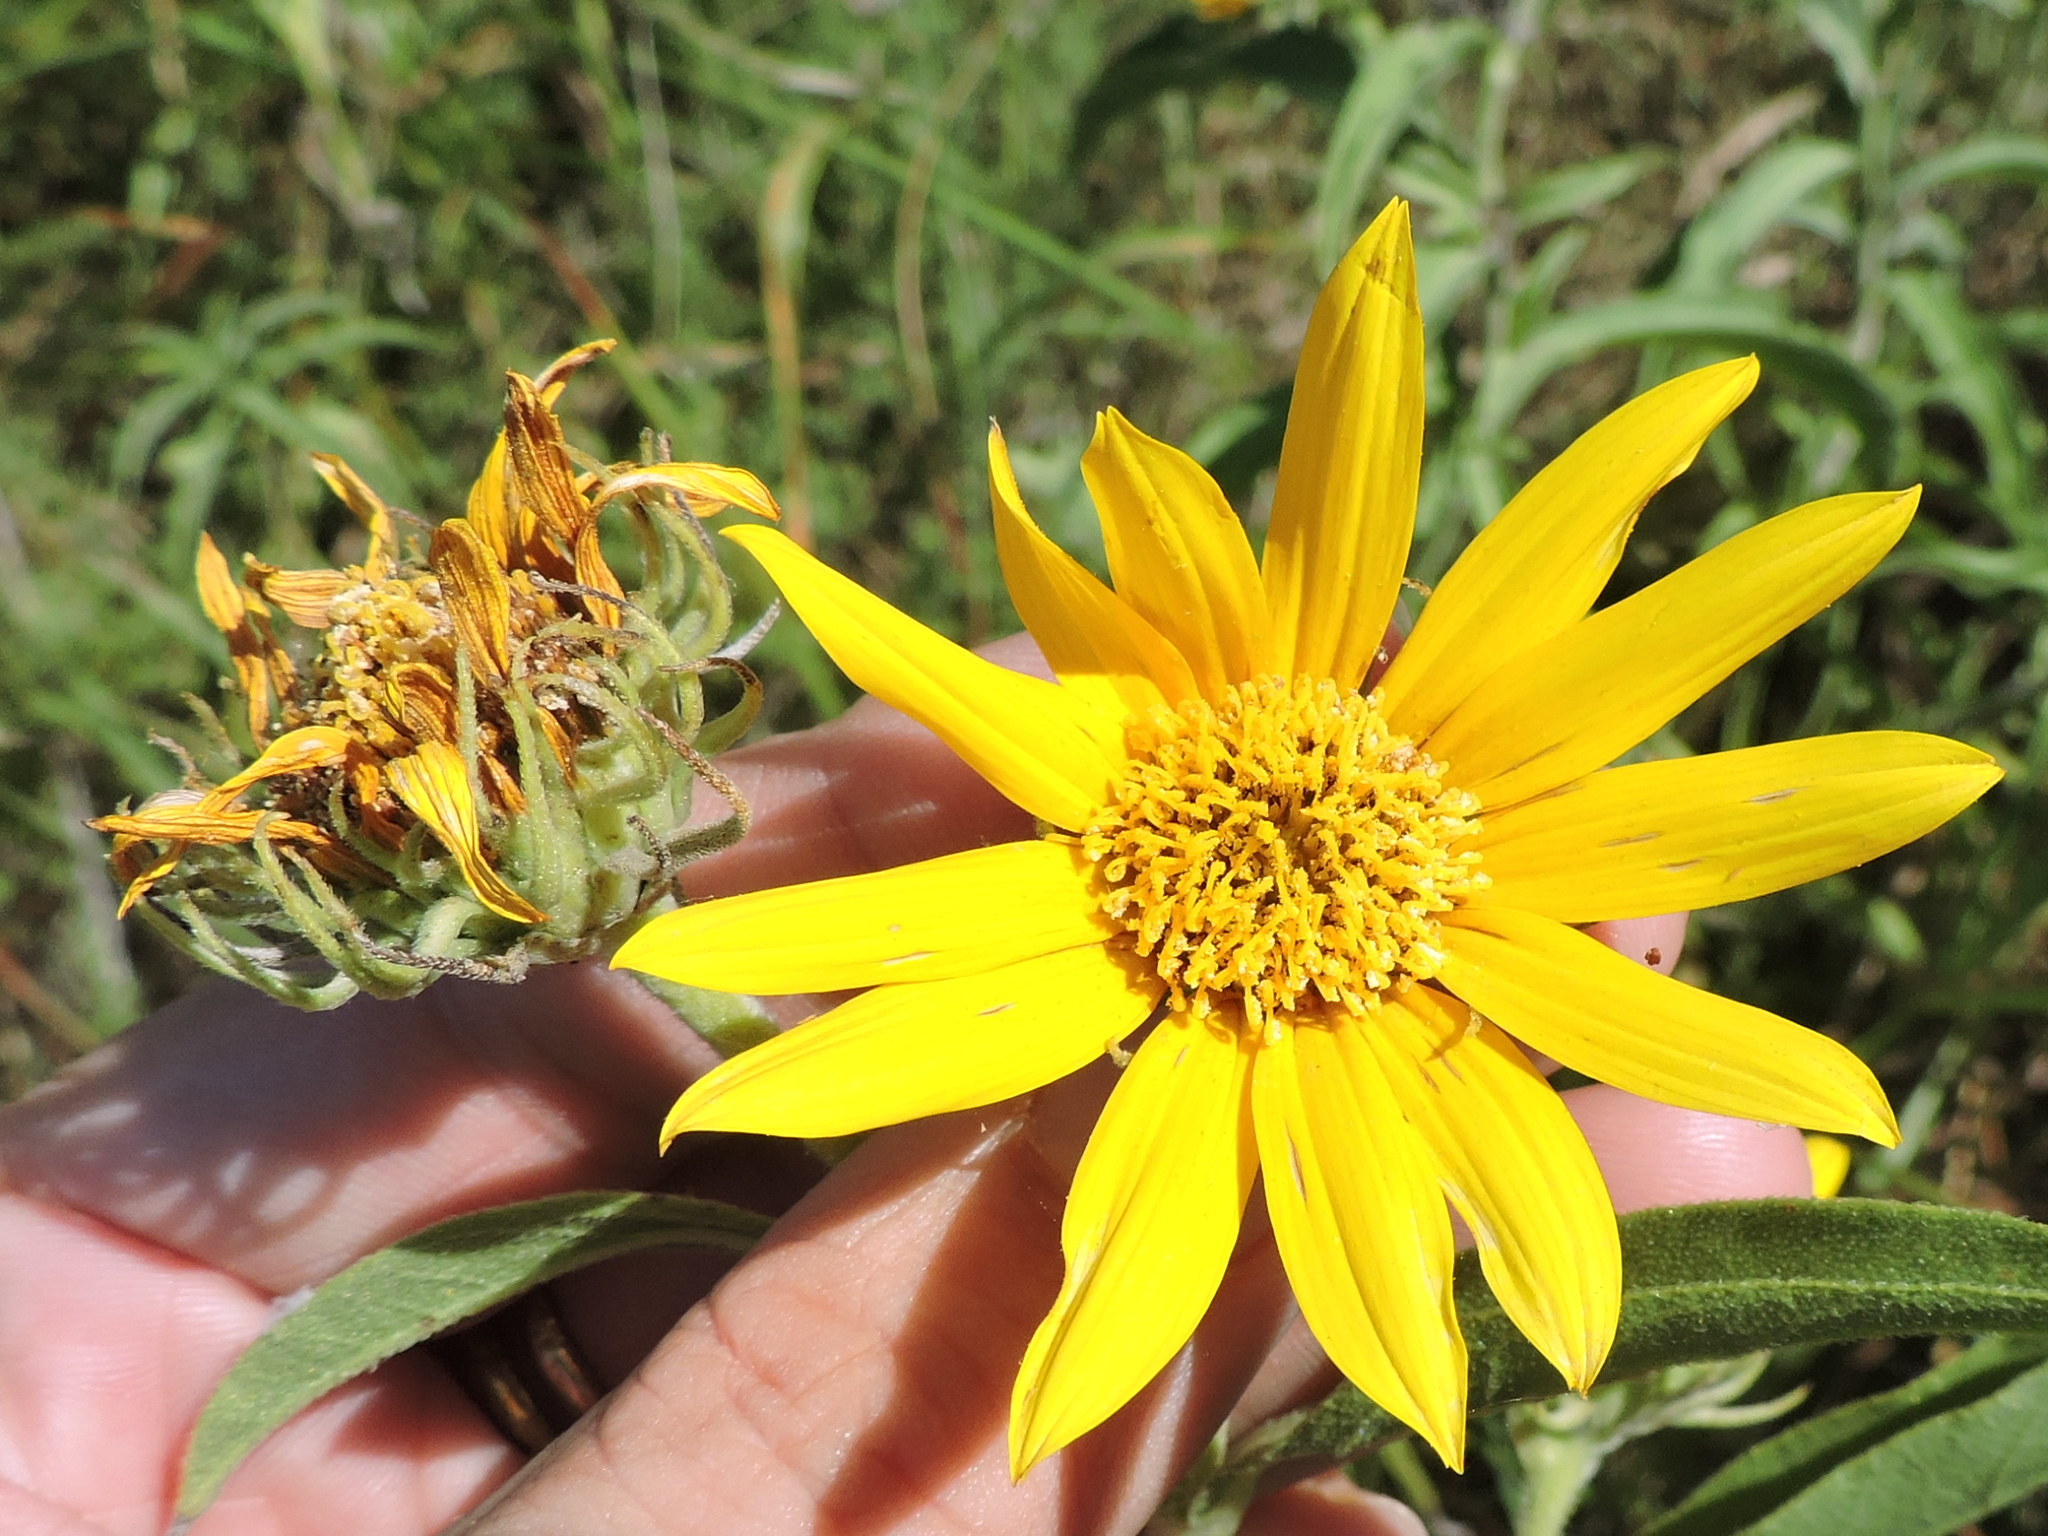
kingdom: Plantae
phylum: Tracheophyta
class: Magnoliopsida
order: Asterales
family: Asteraceae
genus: Helianthus
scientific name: Helianthus maximiliani
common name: Maximilian's sunflower
